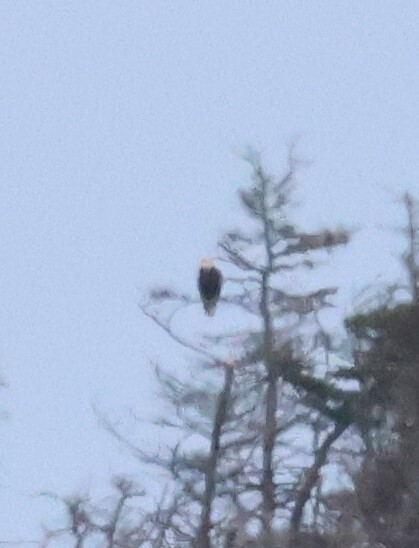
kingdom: Animalia
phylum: Chordata
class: Aves
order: Accipitriformes
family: Accipitridae
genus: Haliaeetus
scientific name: Haliaeetus leucocephalus
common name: Bald eagle
